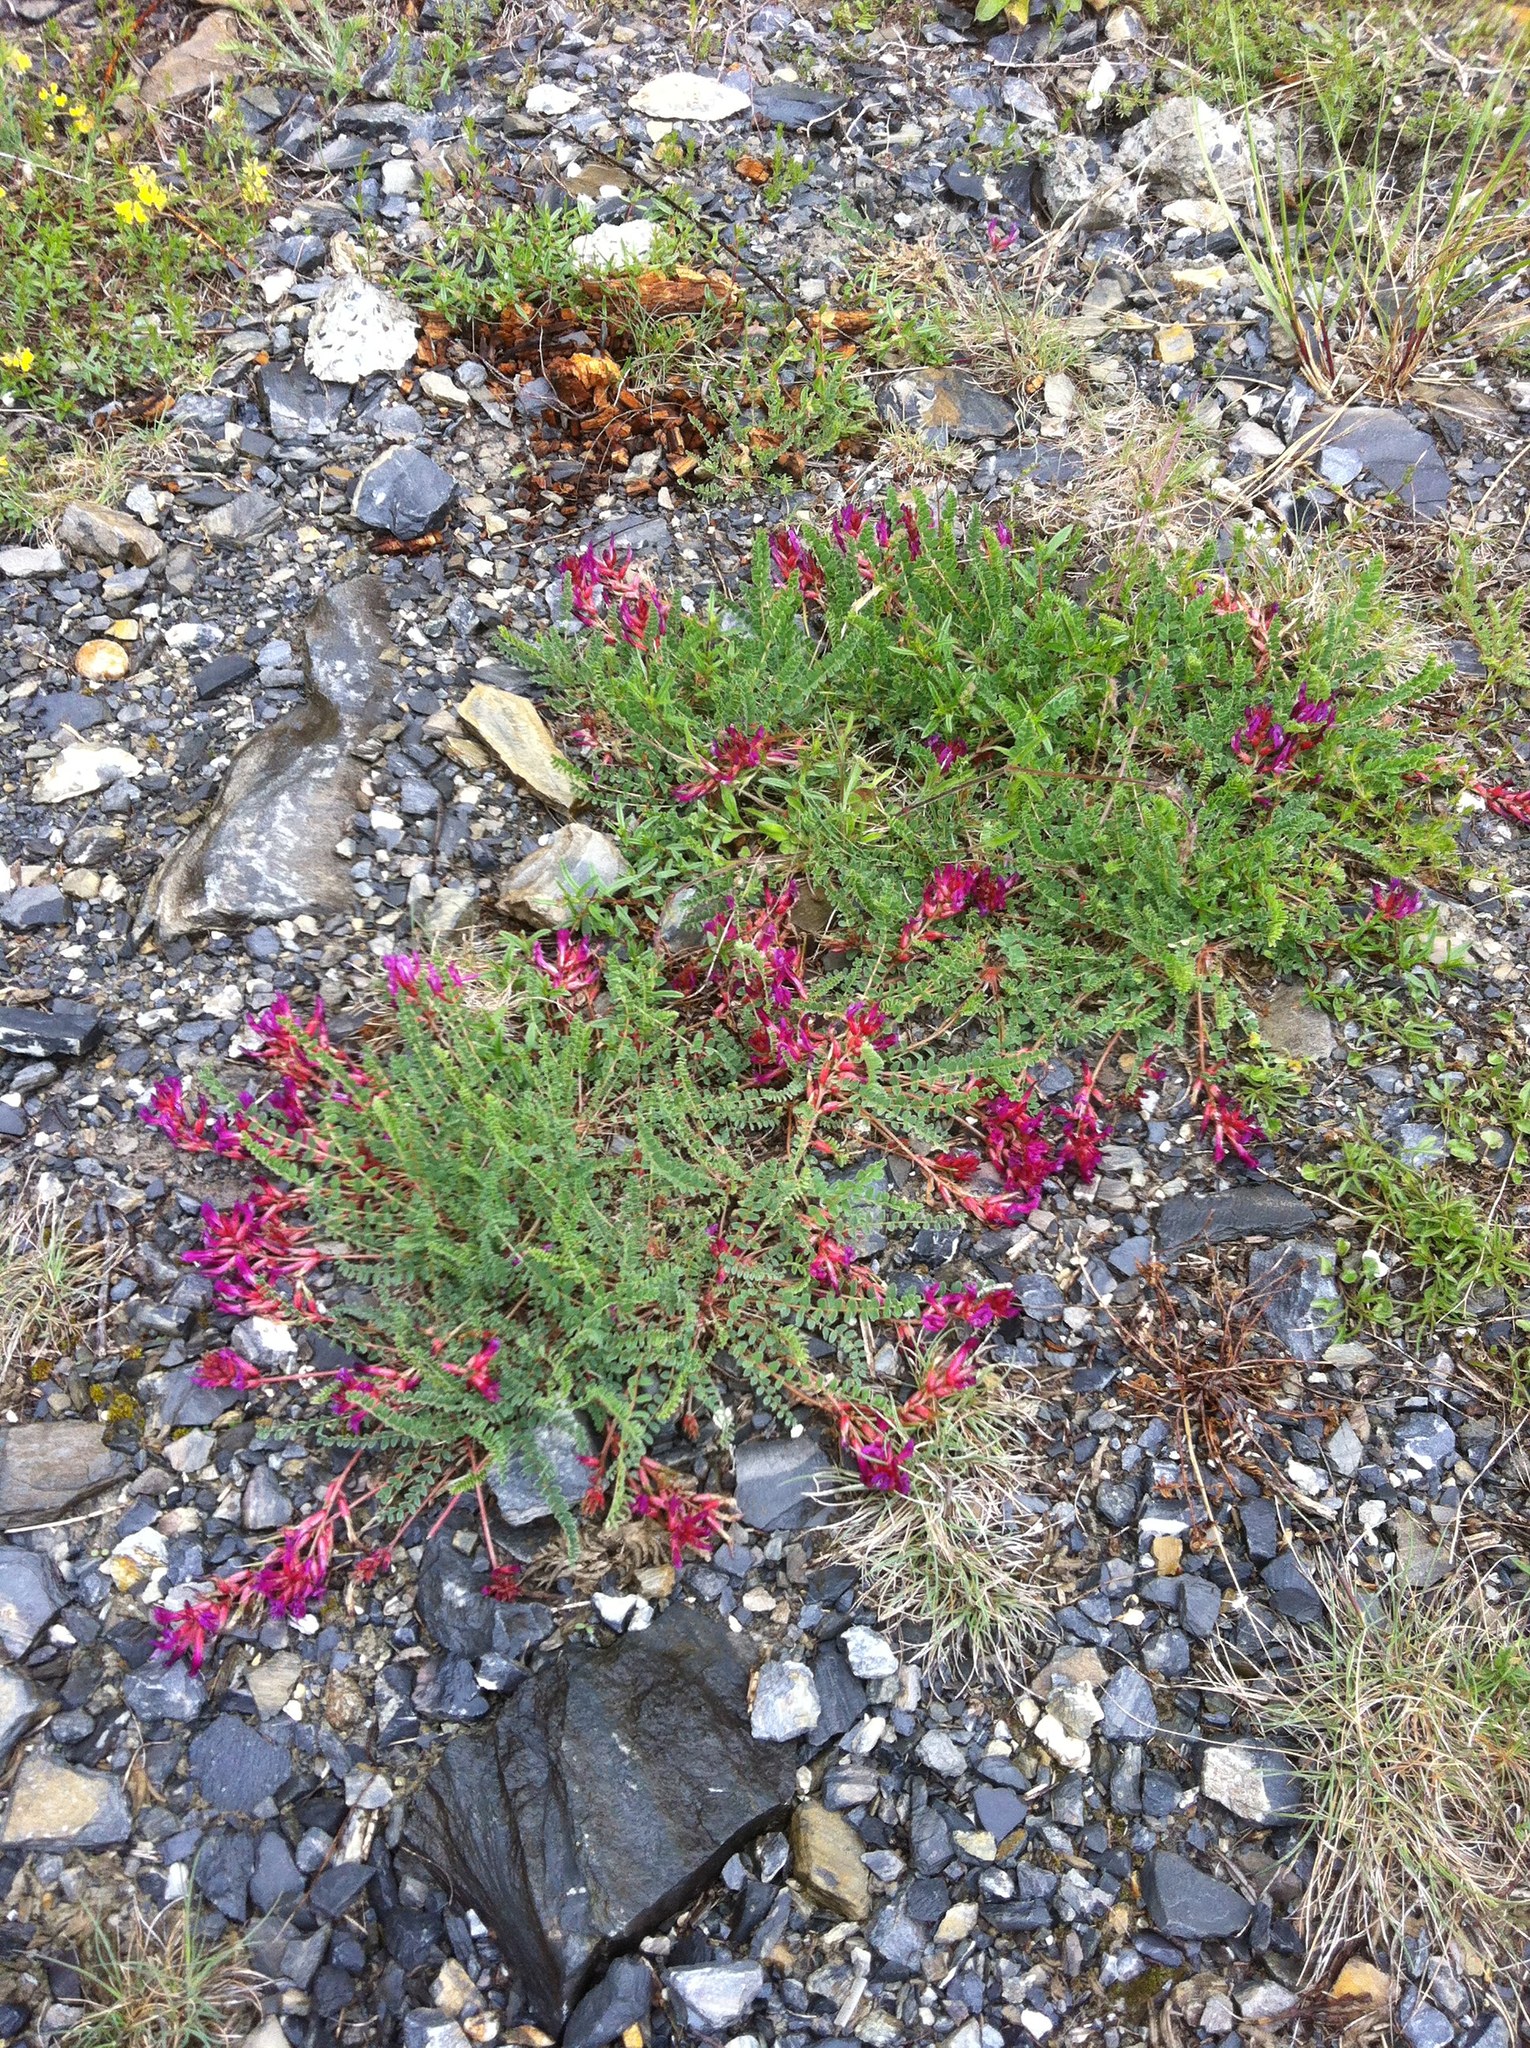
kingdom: Plantae
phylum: Tracheophyta
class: Magnoliopsida
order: Fabales
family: Fabaceae
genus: Astragalus
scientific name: Astragalus monspessulanus
